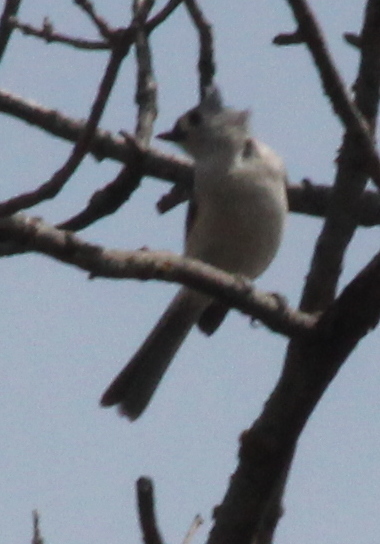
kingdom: Animalia
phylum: Chordata
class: Aves
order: Passeriformes
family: Paridae
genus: Baeolophus
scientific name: Baeolophus bicolor
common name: Tufted titmouse
